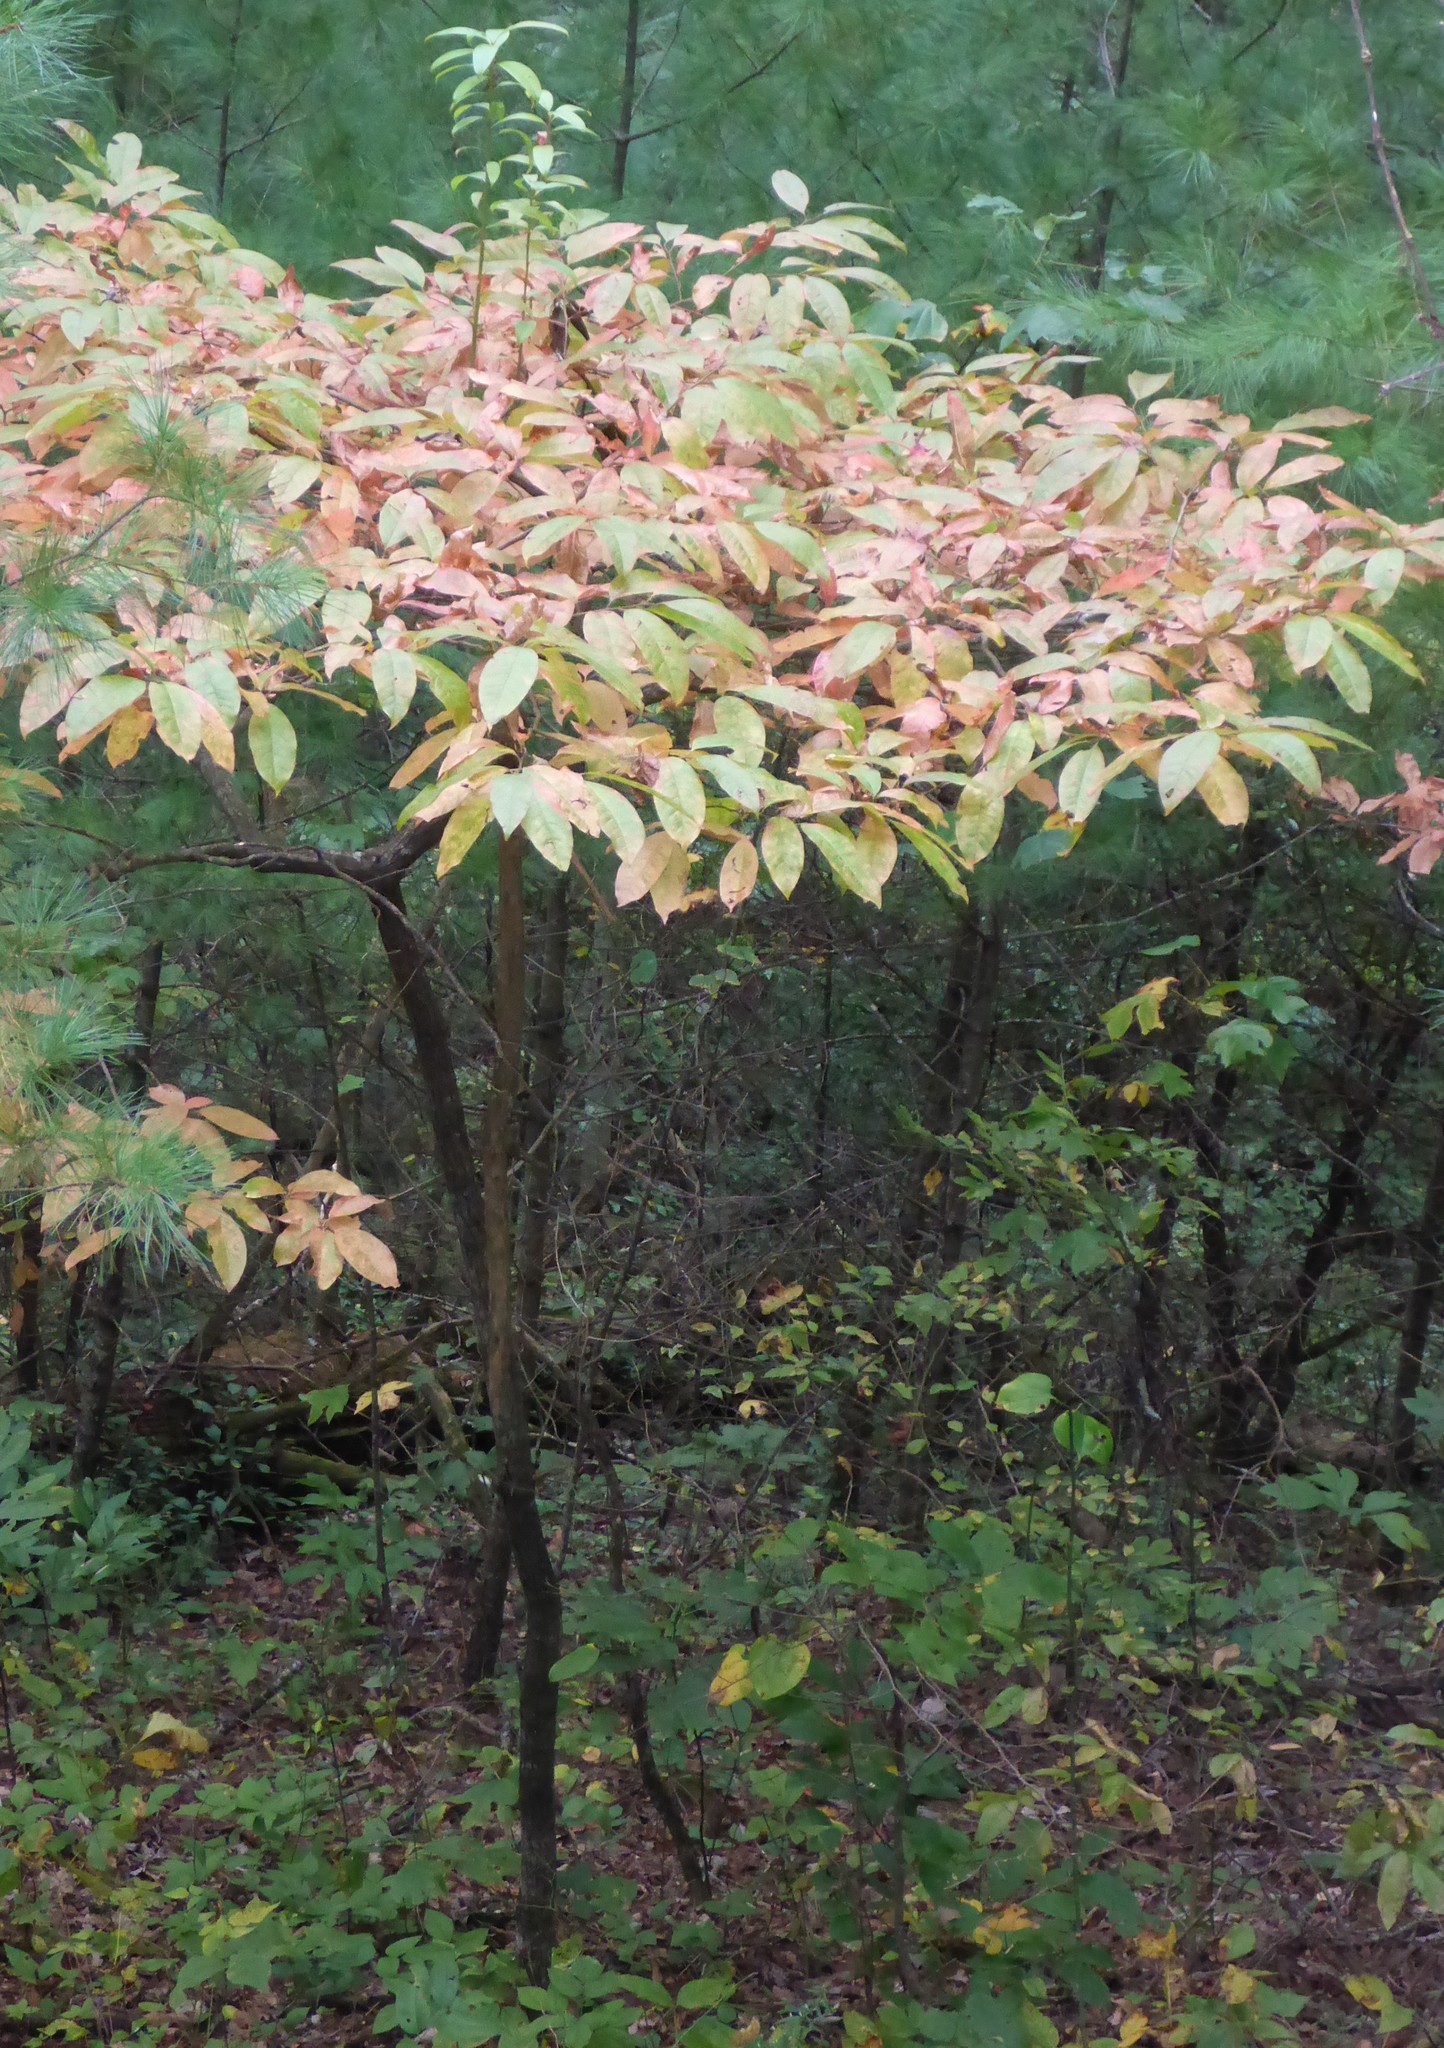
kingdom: Plantae
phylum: Tracheophyta
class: Magnoliopsida
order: Ericales
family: Ericaceae
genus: Oxydendrum
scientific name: Oxydendrum arboreum
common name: Sourwood
